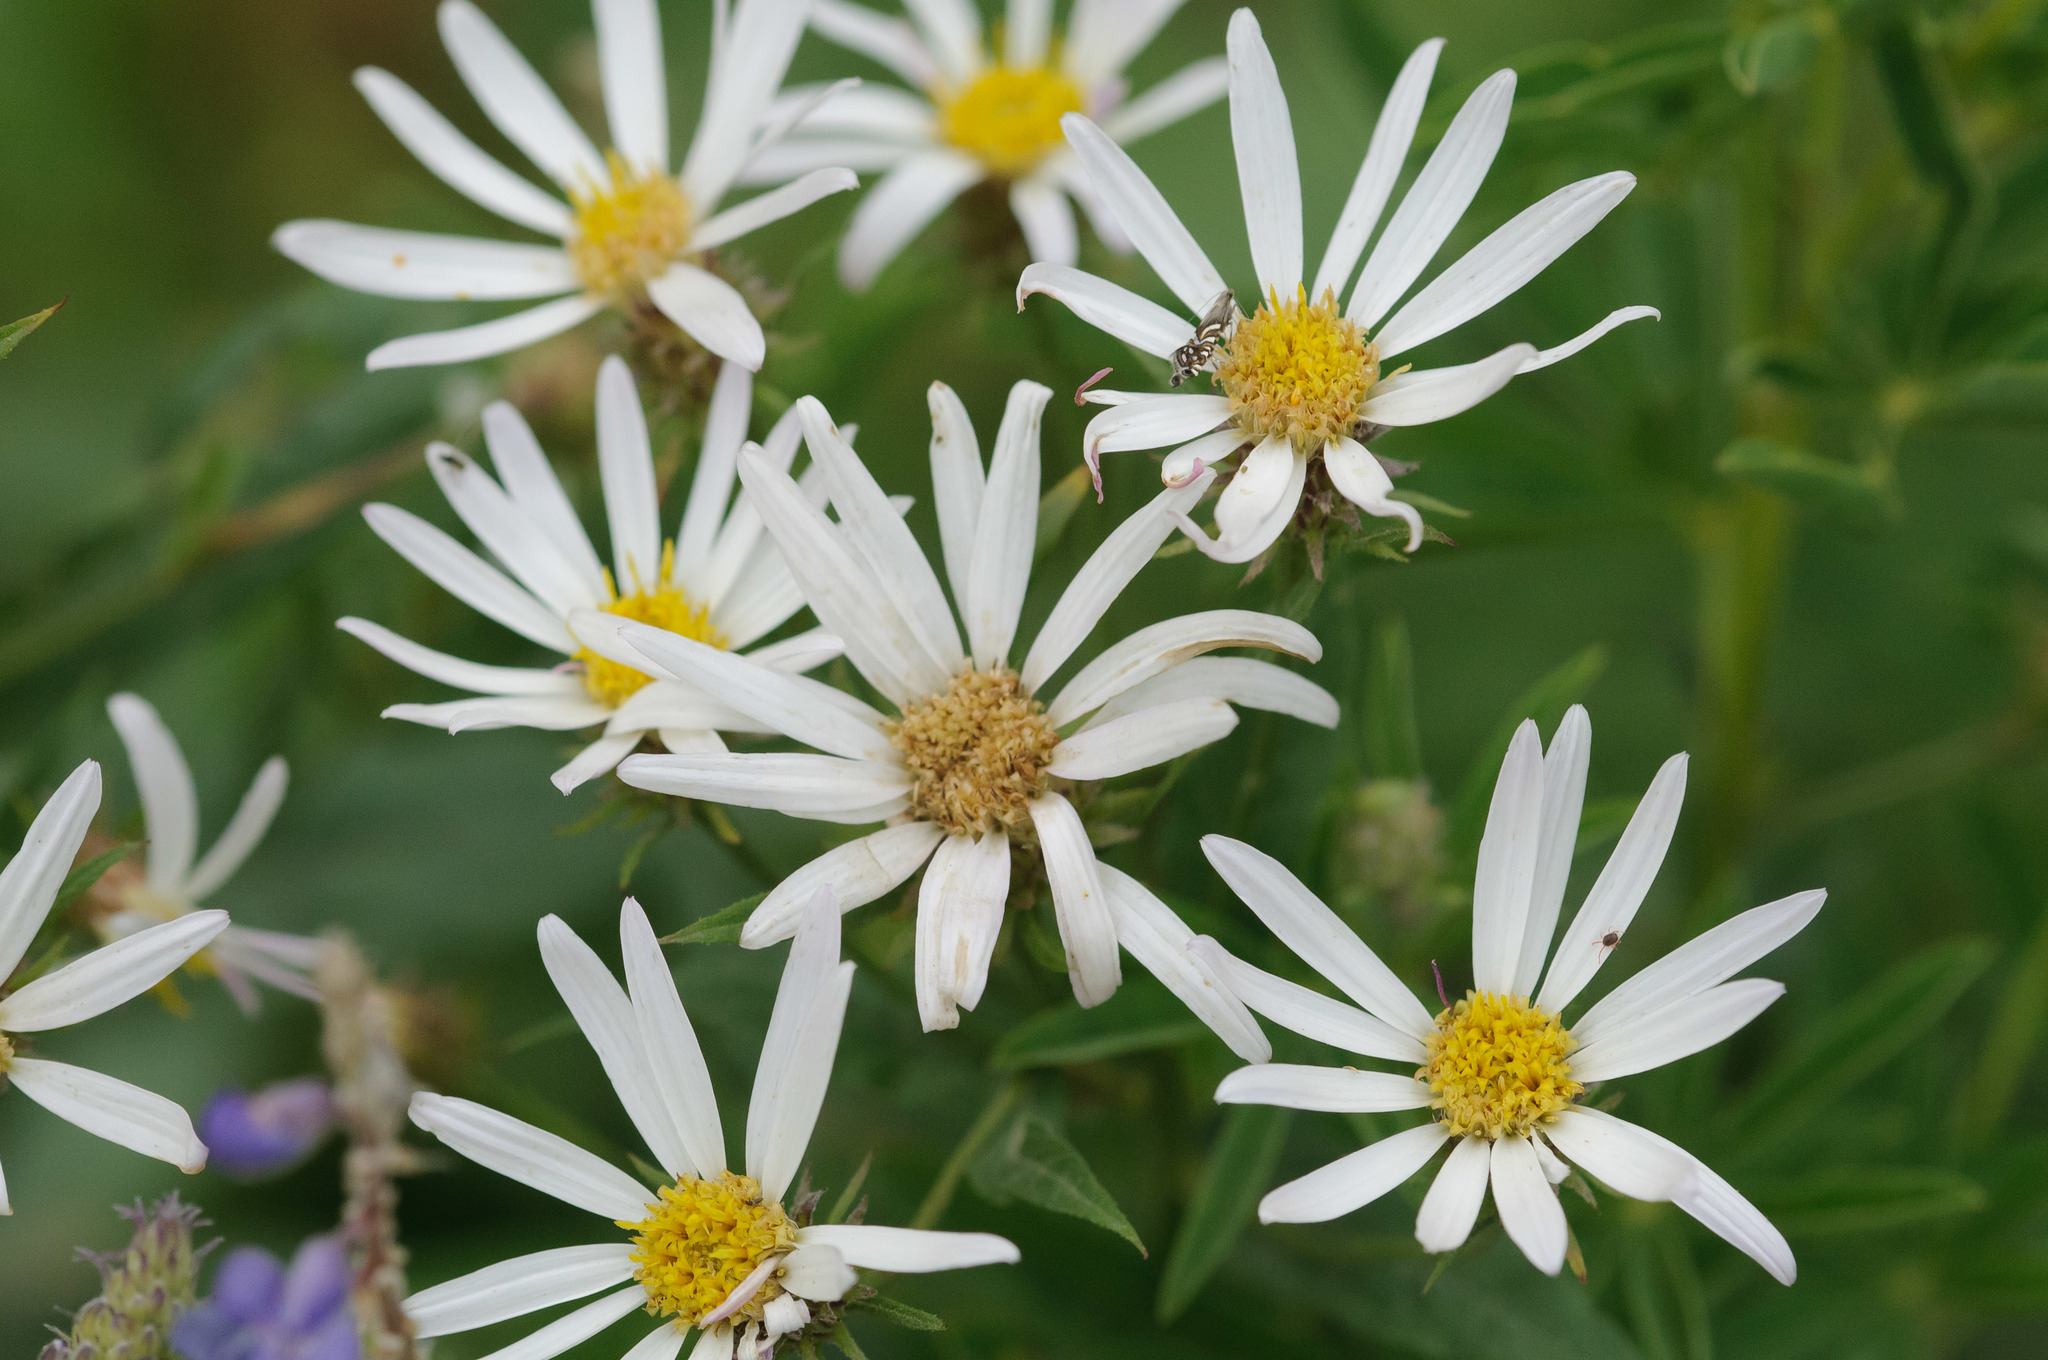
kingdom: Plantae
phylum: Tracheophyta
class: Magnoliopsida
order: Asterales
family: Asteraceae
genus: Eucephalus
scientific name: Eucephalus engelmannii
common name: Engelmann's aster
